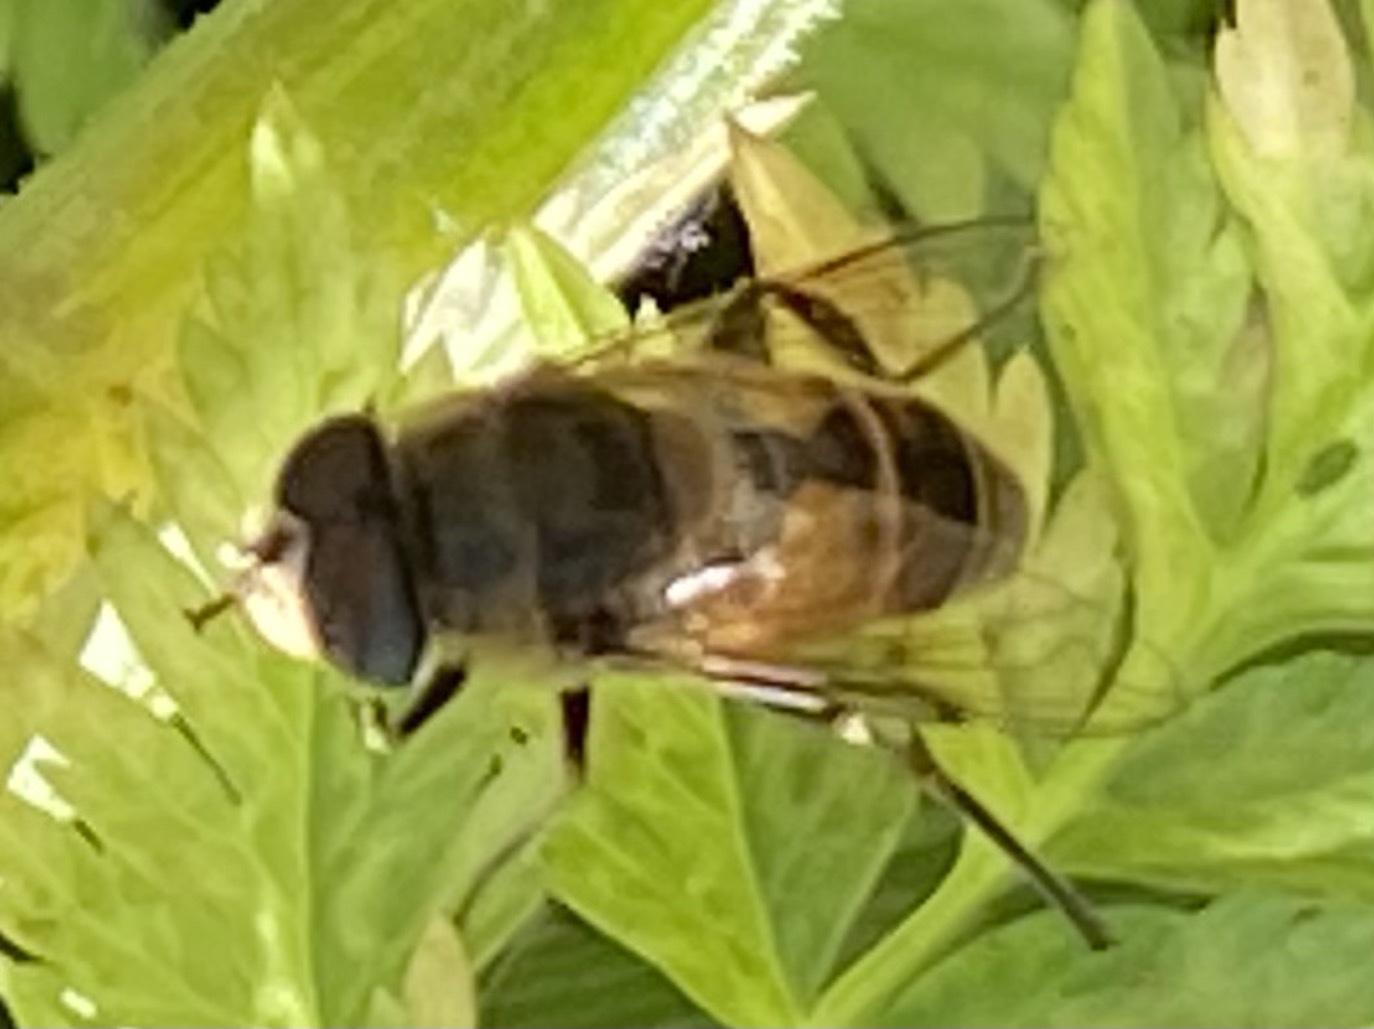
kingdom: Animalia
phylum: Arthropoda
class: Insecta
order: Diptera
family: Syrphidae
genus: Eristalis
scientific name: Eristalis tenax
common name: Drone fly
